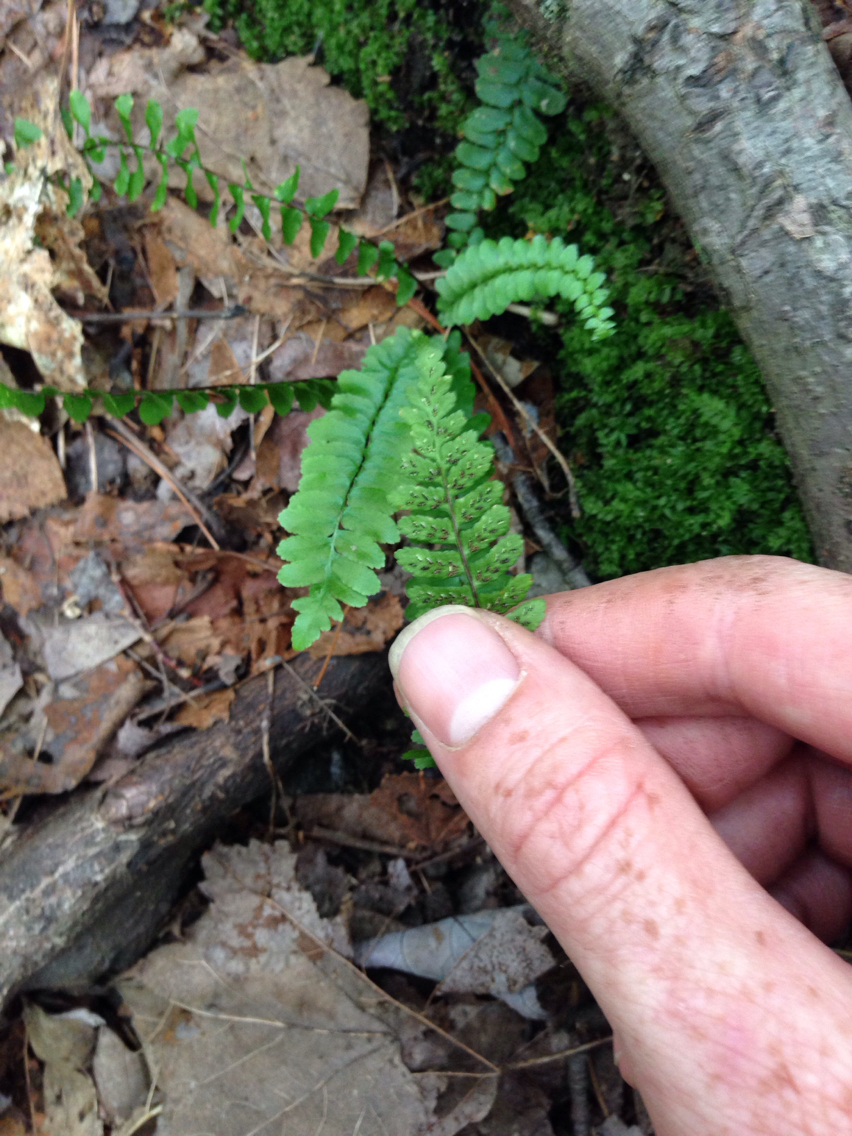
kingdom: Plantae
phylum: Tracheophyta
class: Polypodiopsida
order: Polypodiales
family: Aspleniaceae
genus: Asplenium
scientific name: Asplenium platyneuron
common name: Ebony spleenwort
